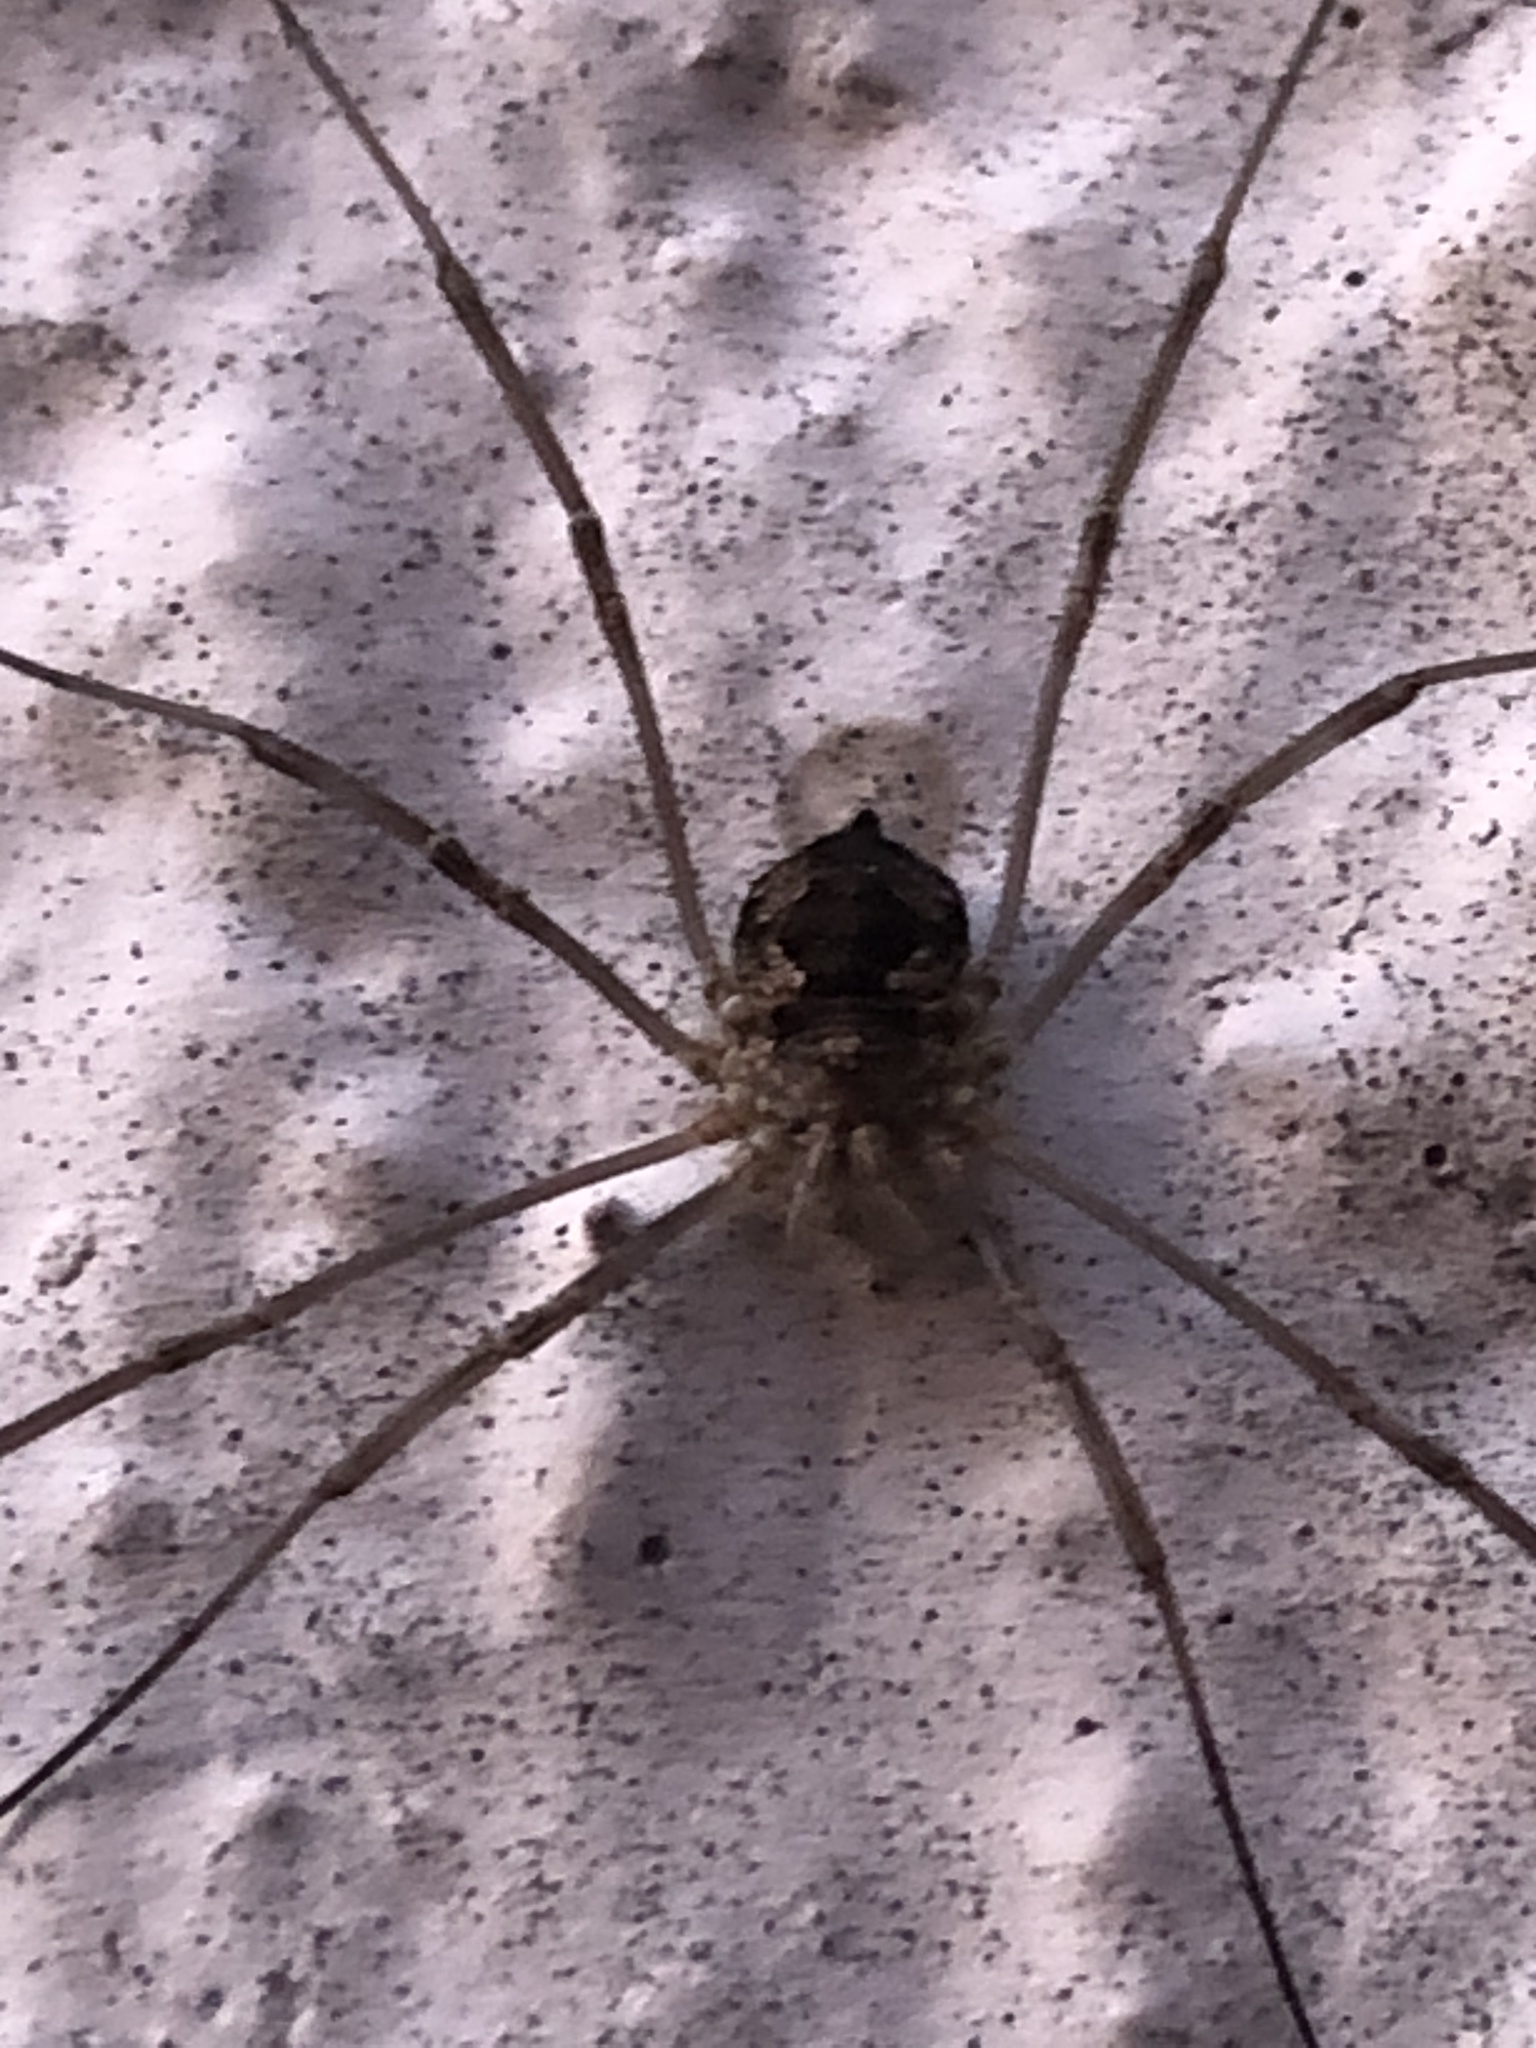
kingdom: Animalia
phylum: Arthropoda
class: Arachnida
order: Opiliones
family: Phalangiidae
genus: Phalangium
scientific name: Phalangium opilio
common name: Daddy longleg
